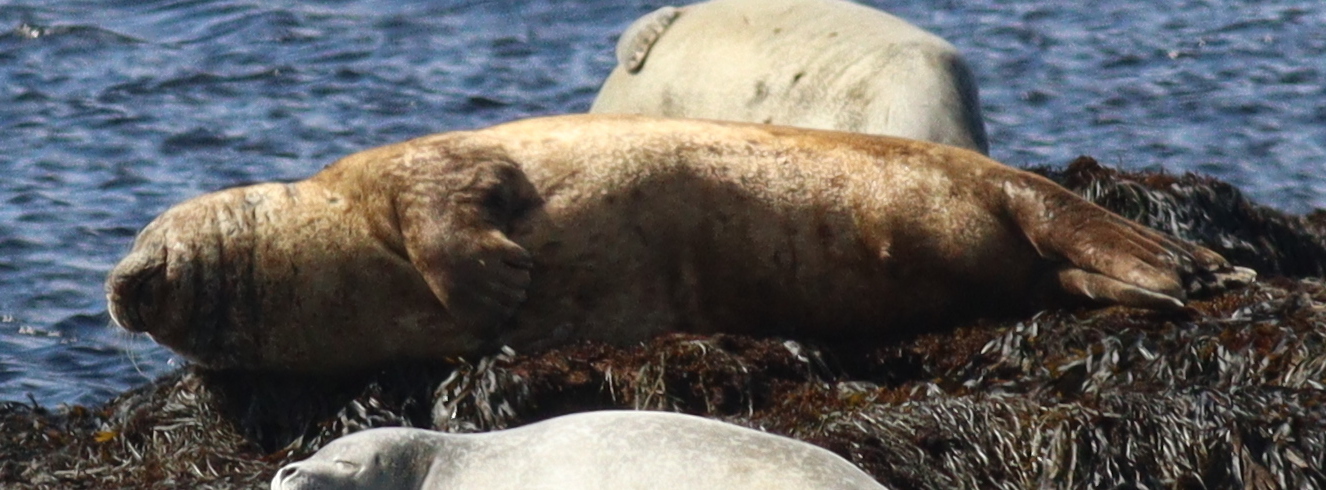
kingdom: Animalia
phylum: Chordata
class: Mammalia
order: Carnivora
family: Phocidae
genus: Phoca
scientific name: Phoca vitulina
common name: Harbor seal
